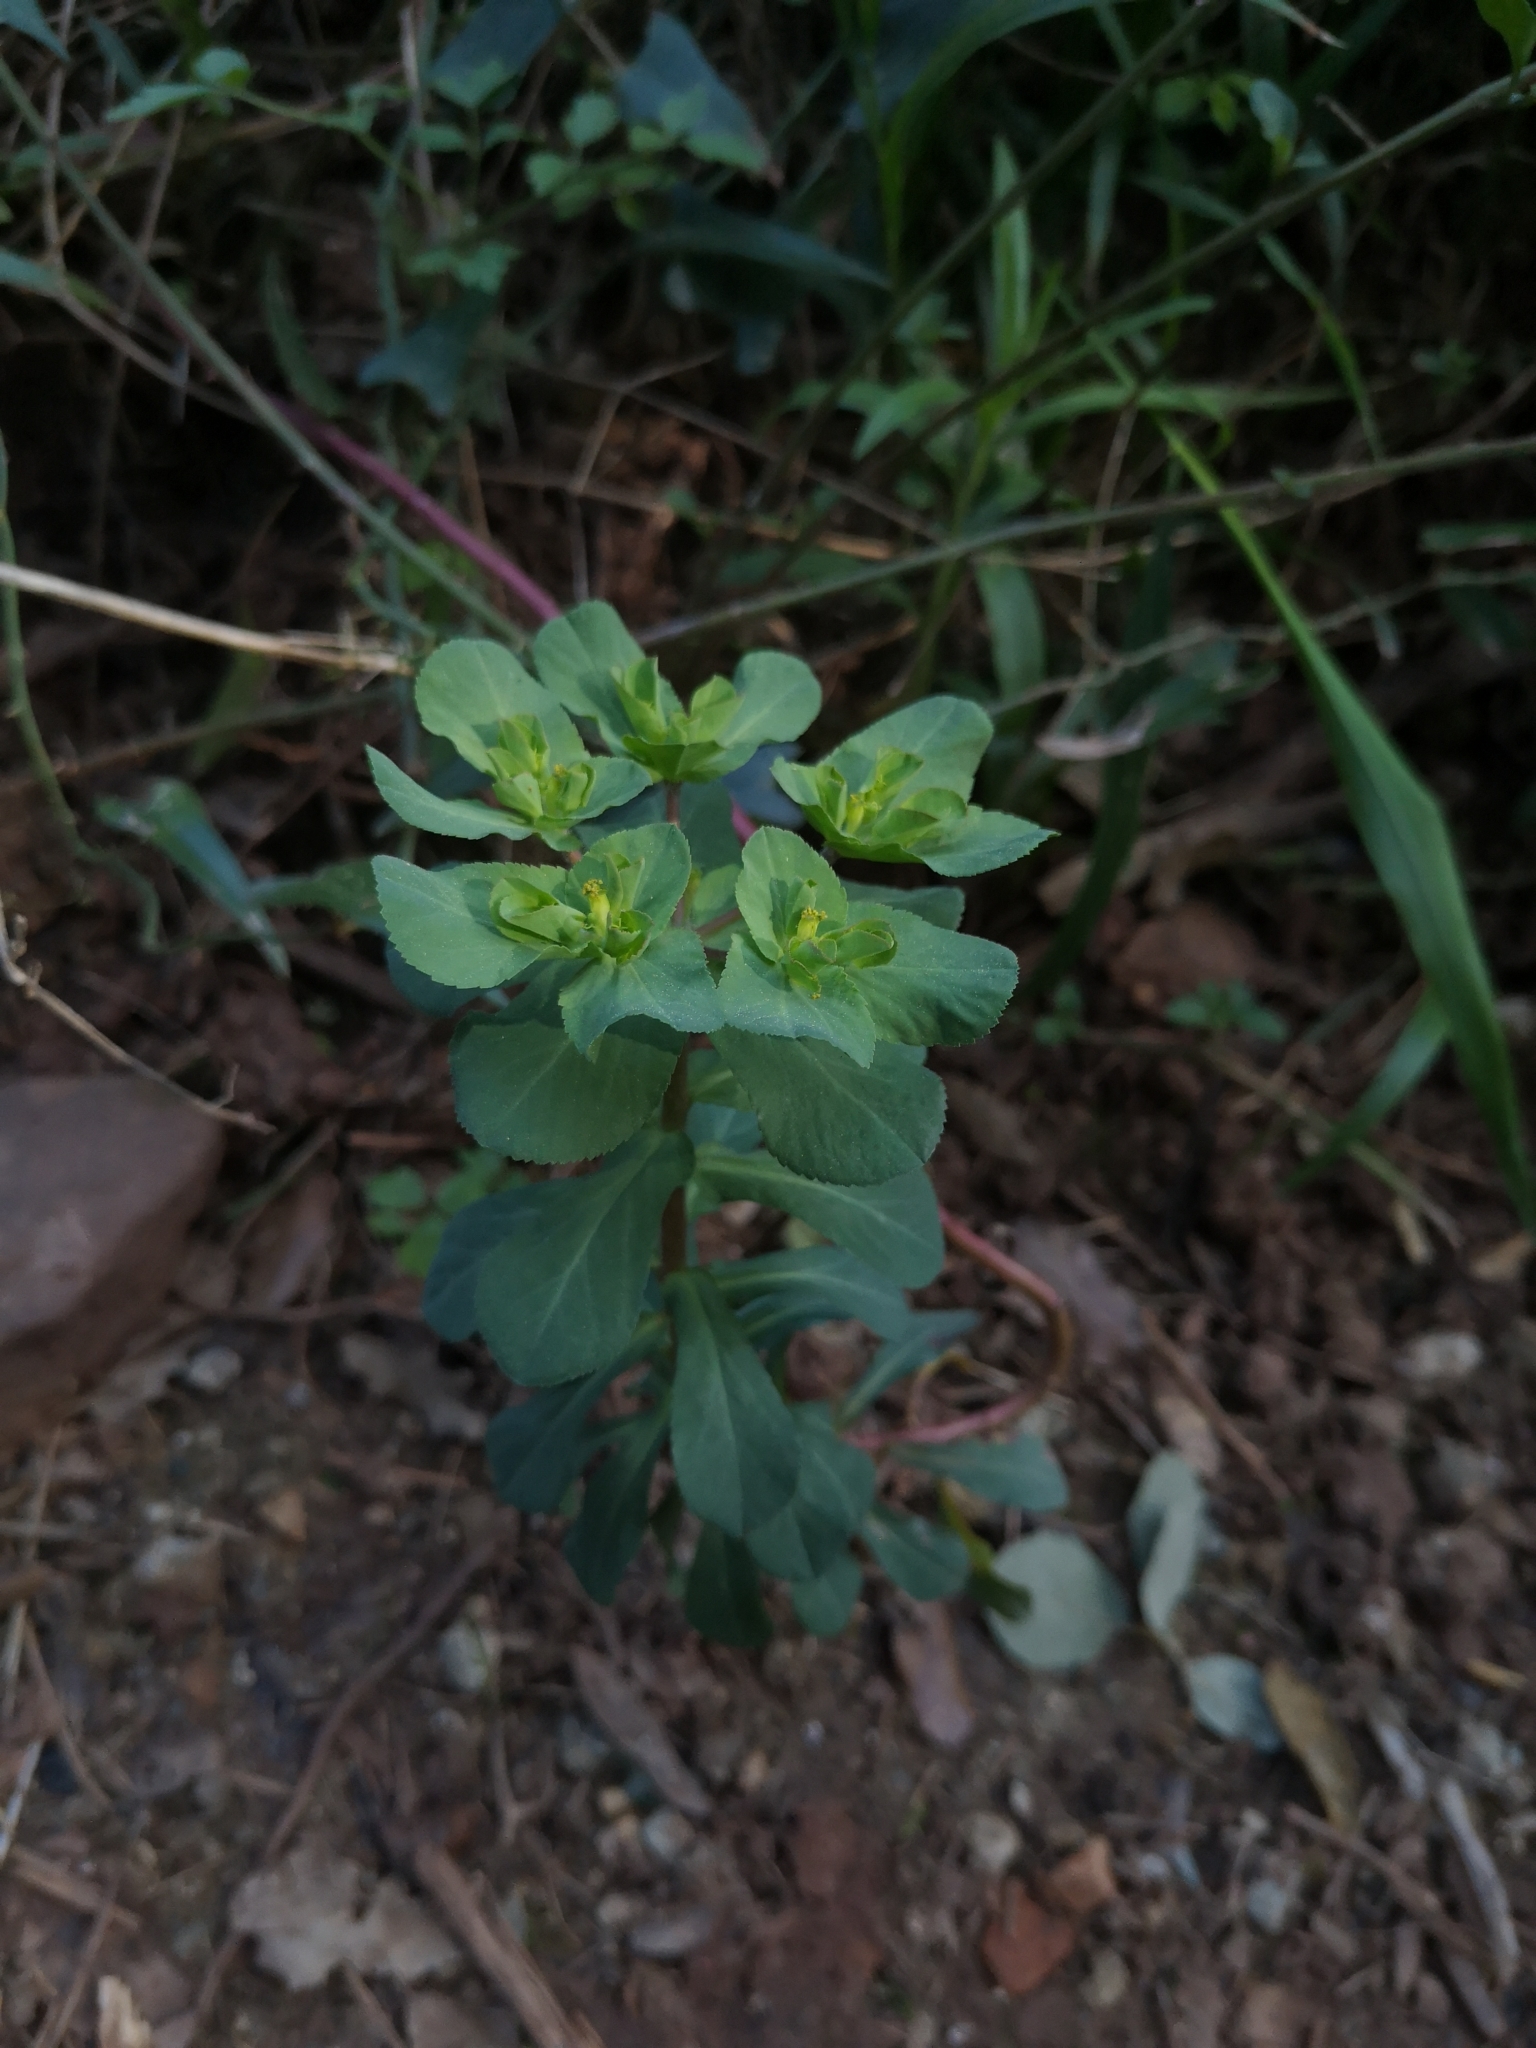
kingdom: Plantae
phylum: Tracheophyta
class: Magnoliopsida
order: Malpighiales
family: Euphorbiaceae
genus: Euphorbia
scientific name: Euphorbia helioscopia
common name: Sun spurge
